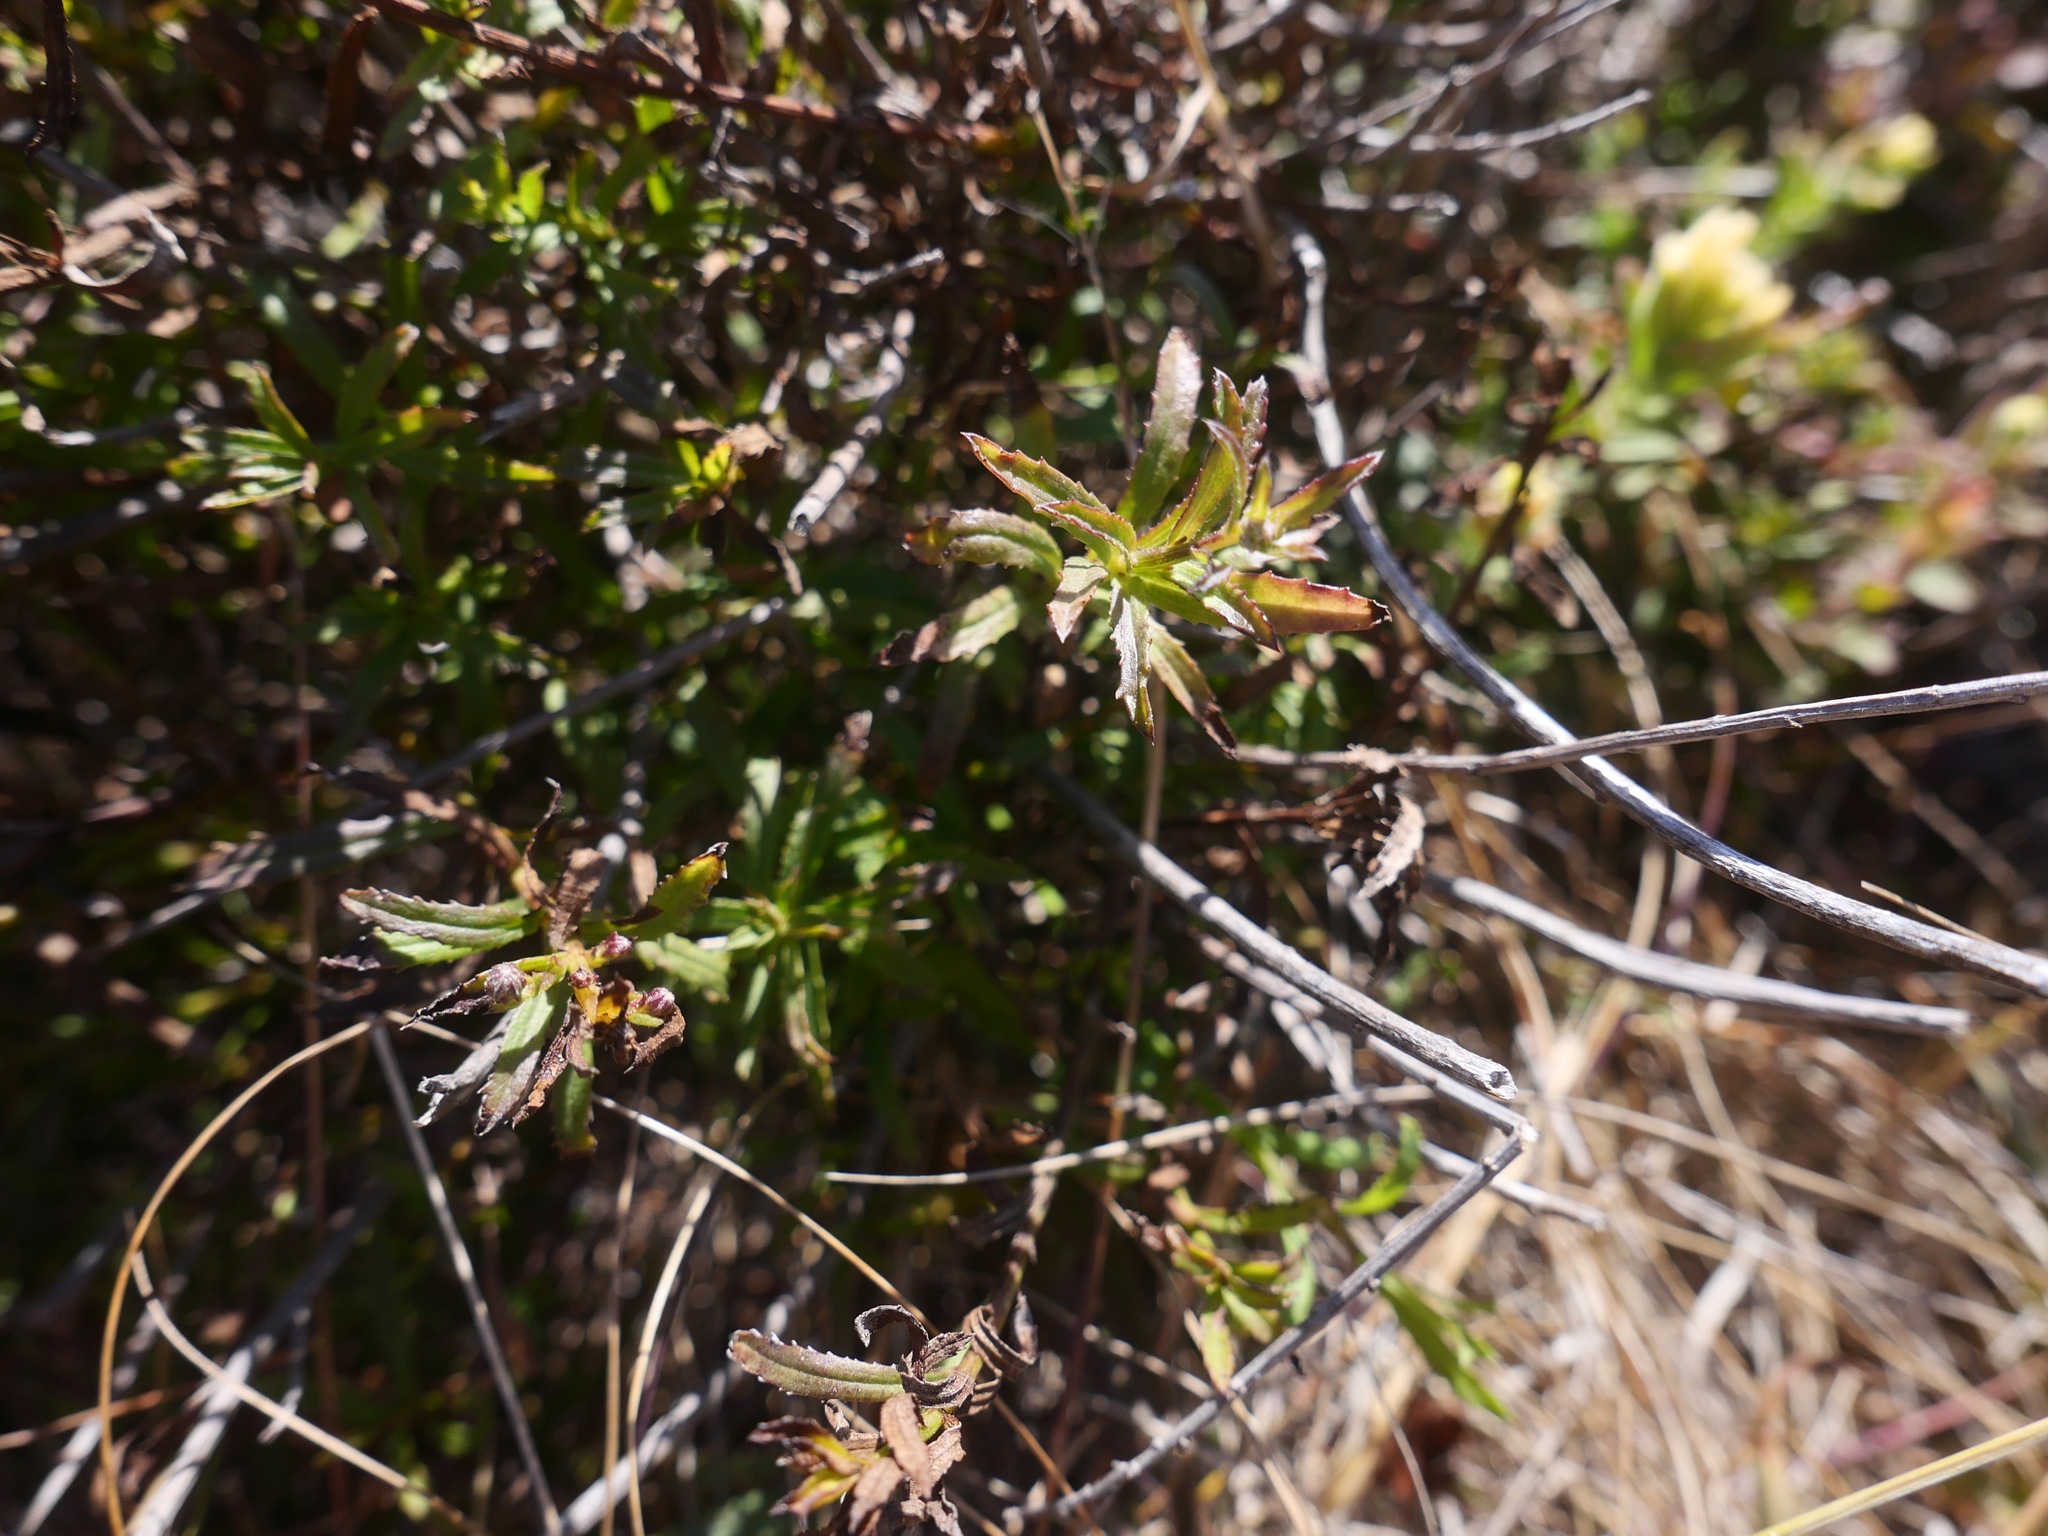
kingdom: Plantae
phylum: Tracheophyta
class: Magnoliopsida
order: Asterales
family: Asteraceae
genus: Baccharis
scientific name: Baccharis glabrata
